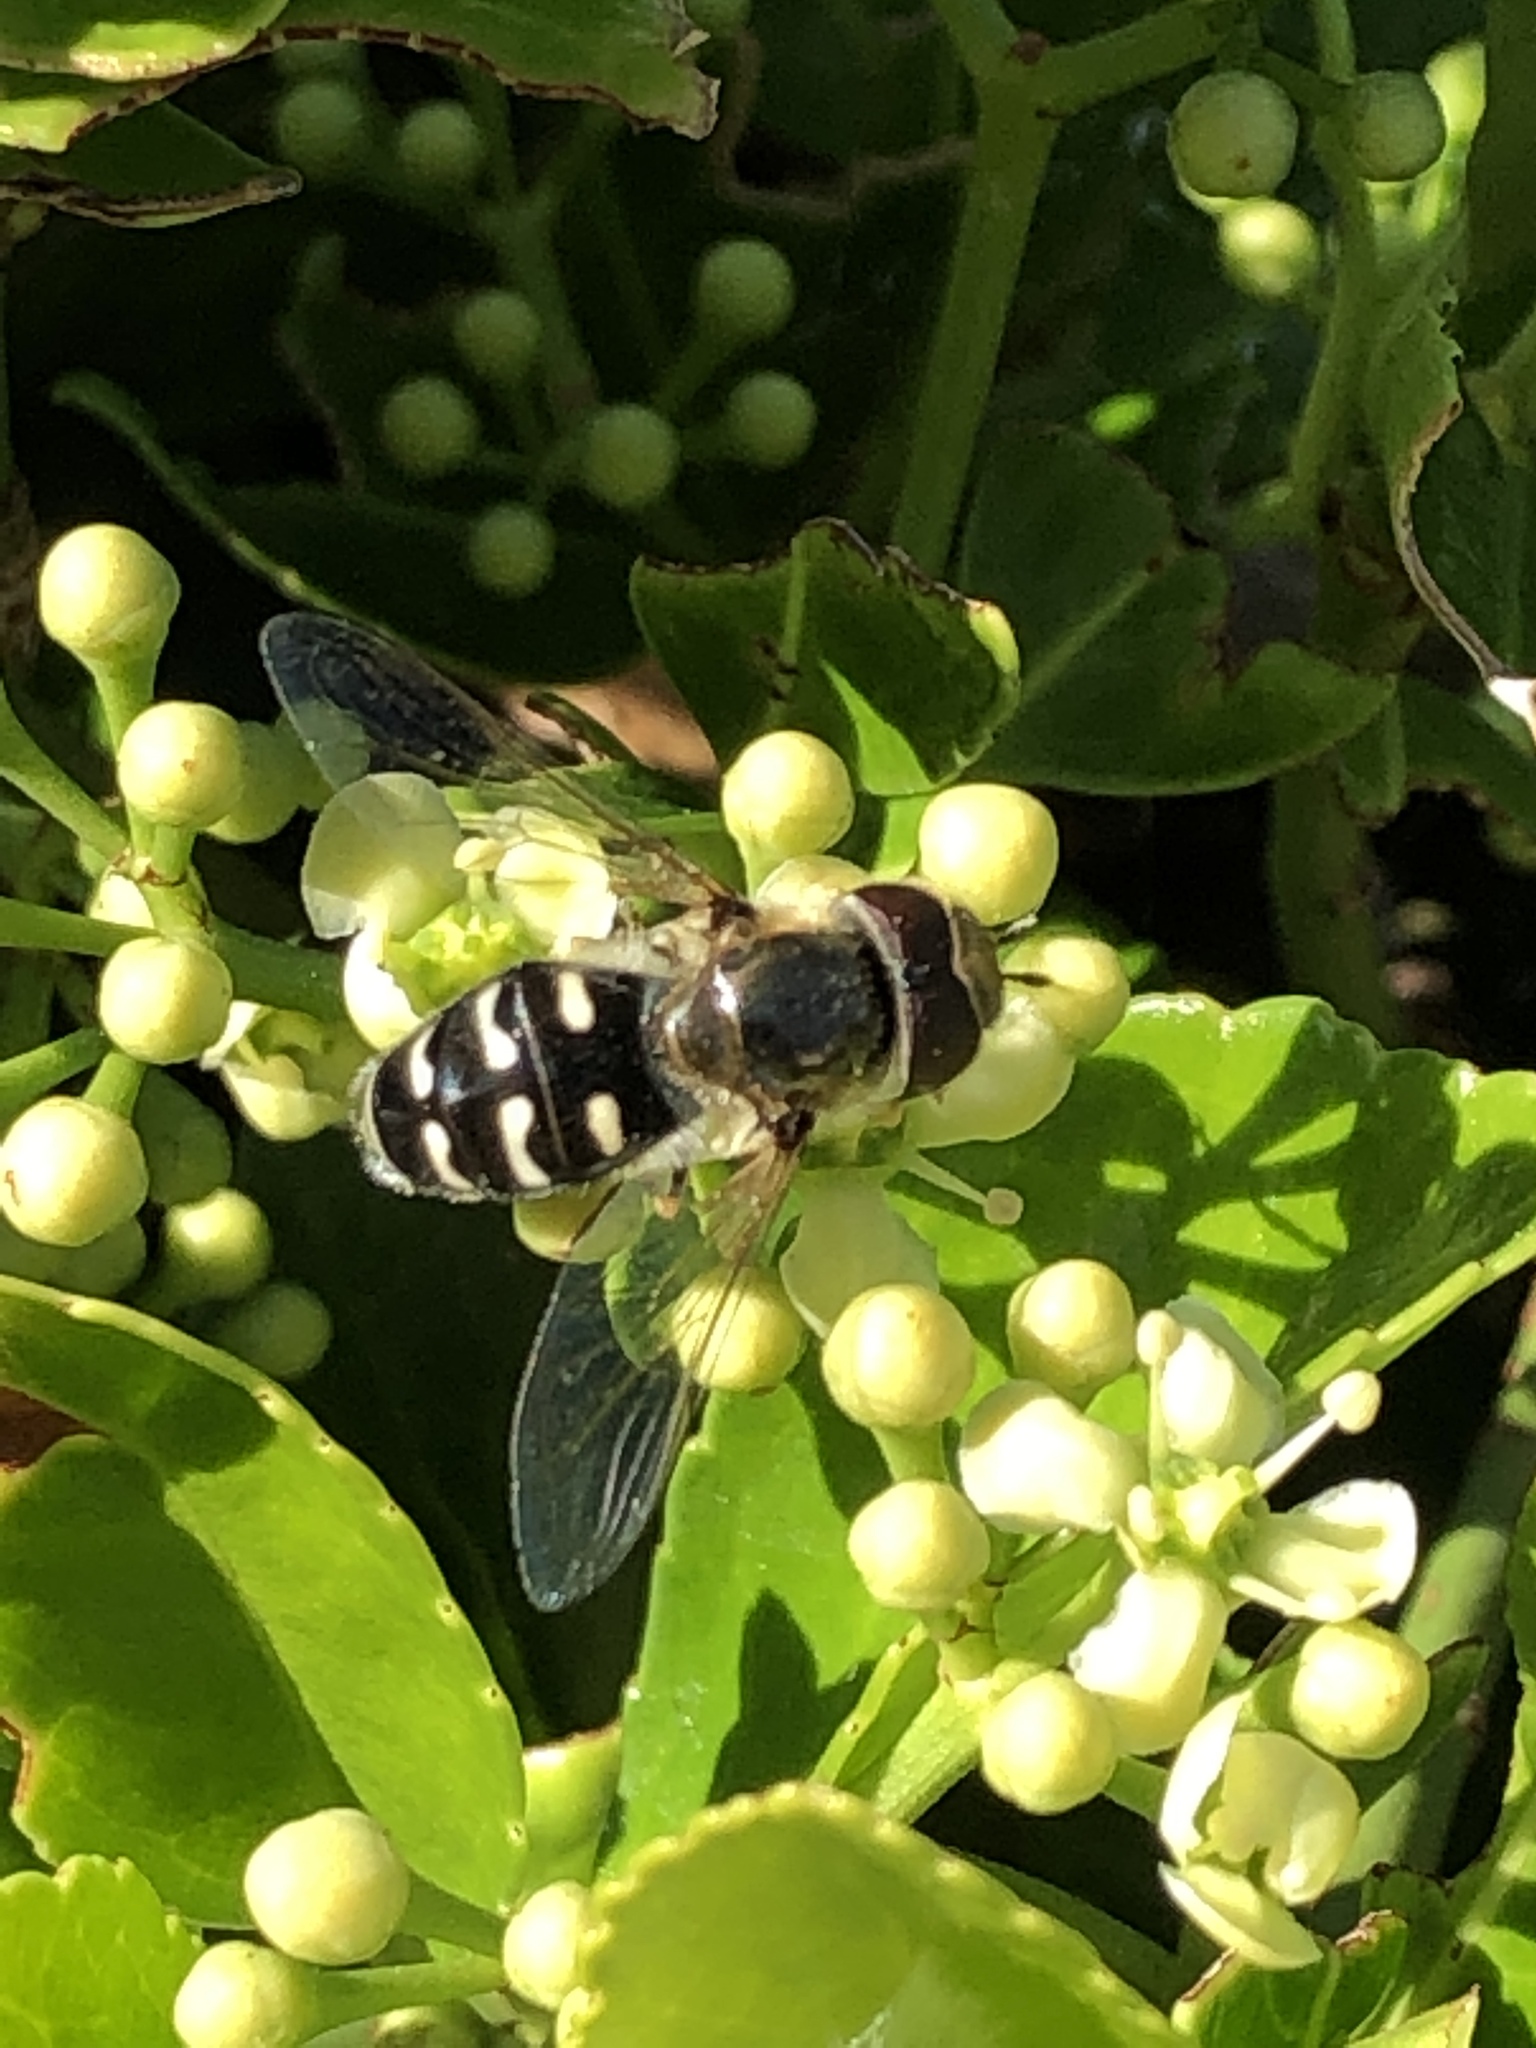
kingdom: Animalia
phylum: Arthropoda
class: Insecta
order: Diptera
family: Syrphidae
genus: Scaeva
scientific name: Scaeva pyrastri
